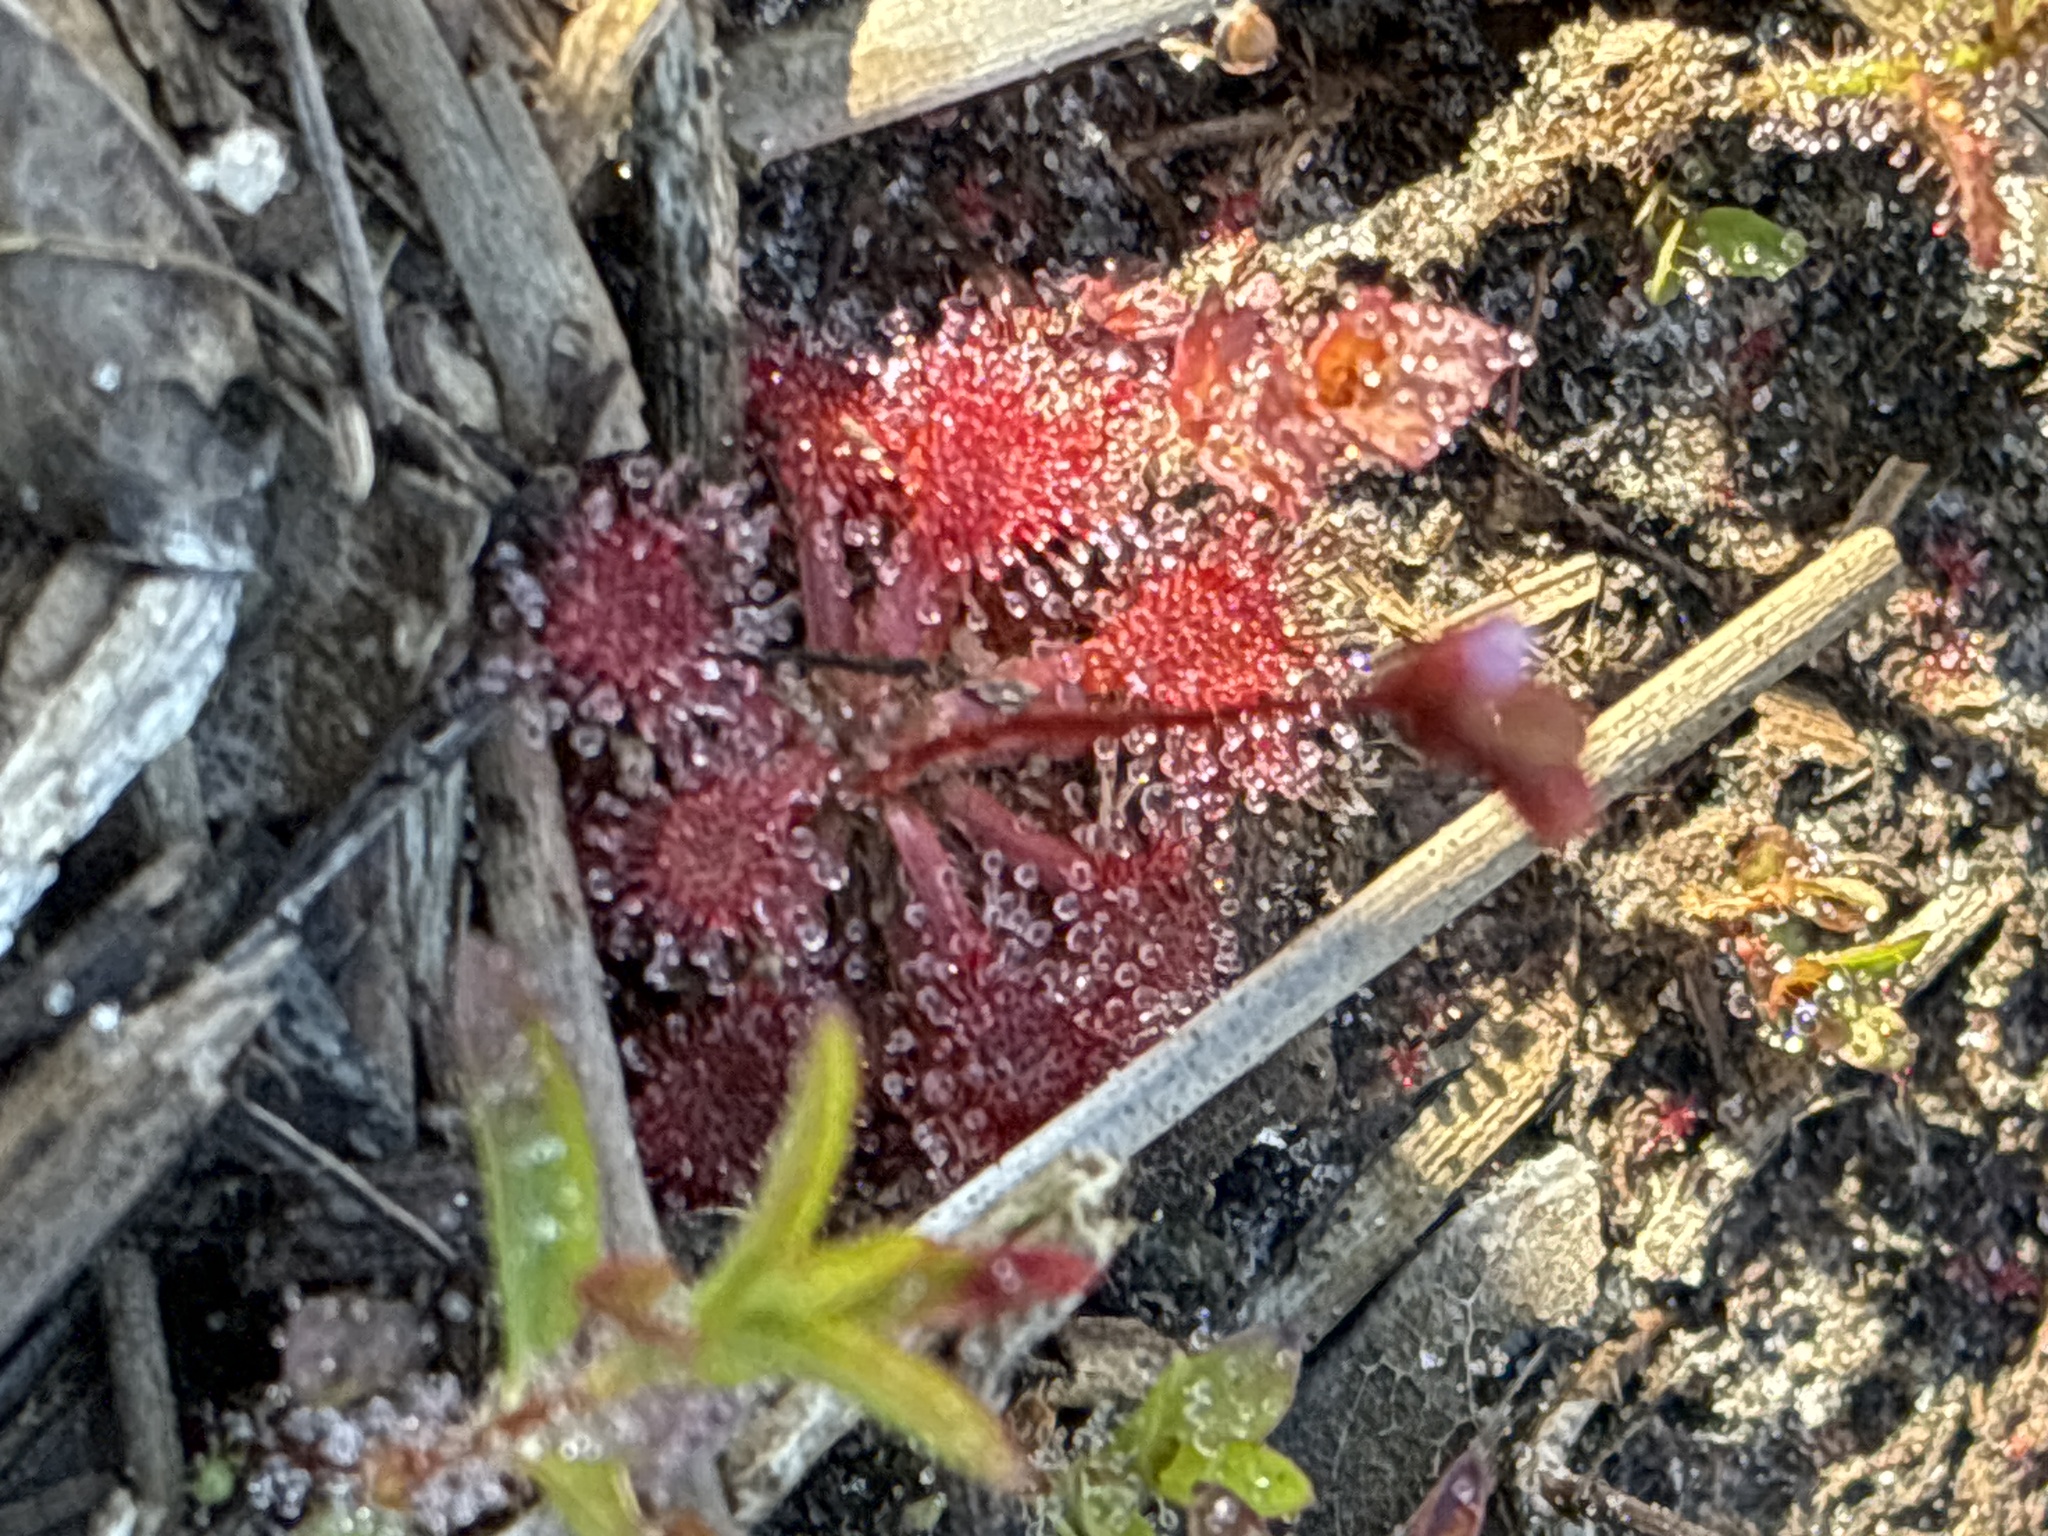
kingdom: Plantae
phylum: Tracheophyta
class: Magnoliopsida
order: Caryophyllales
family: Droseraceae
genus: Drosera
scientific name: Drosera capillaris
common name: Pink sundew
